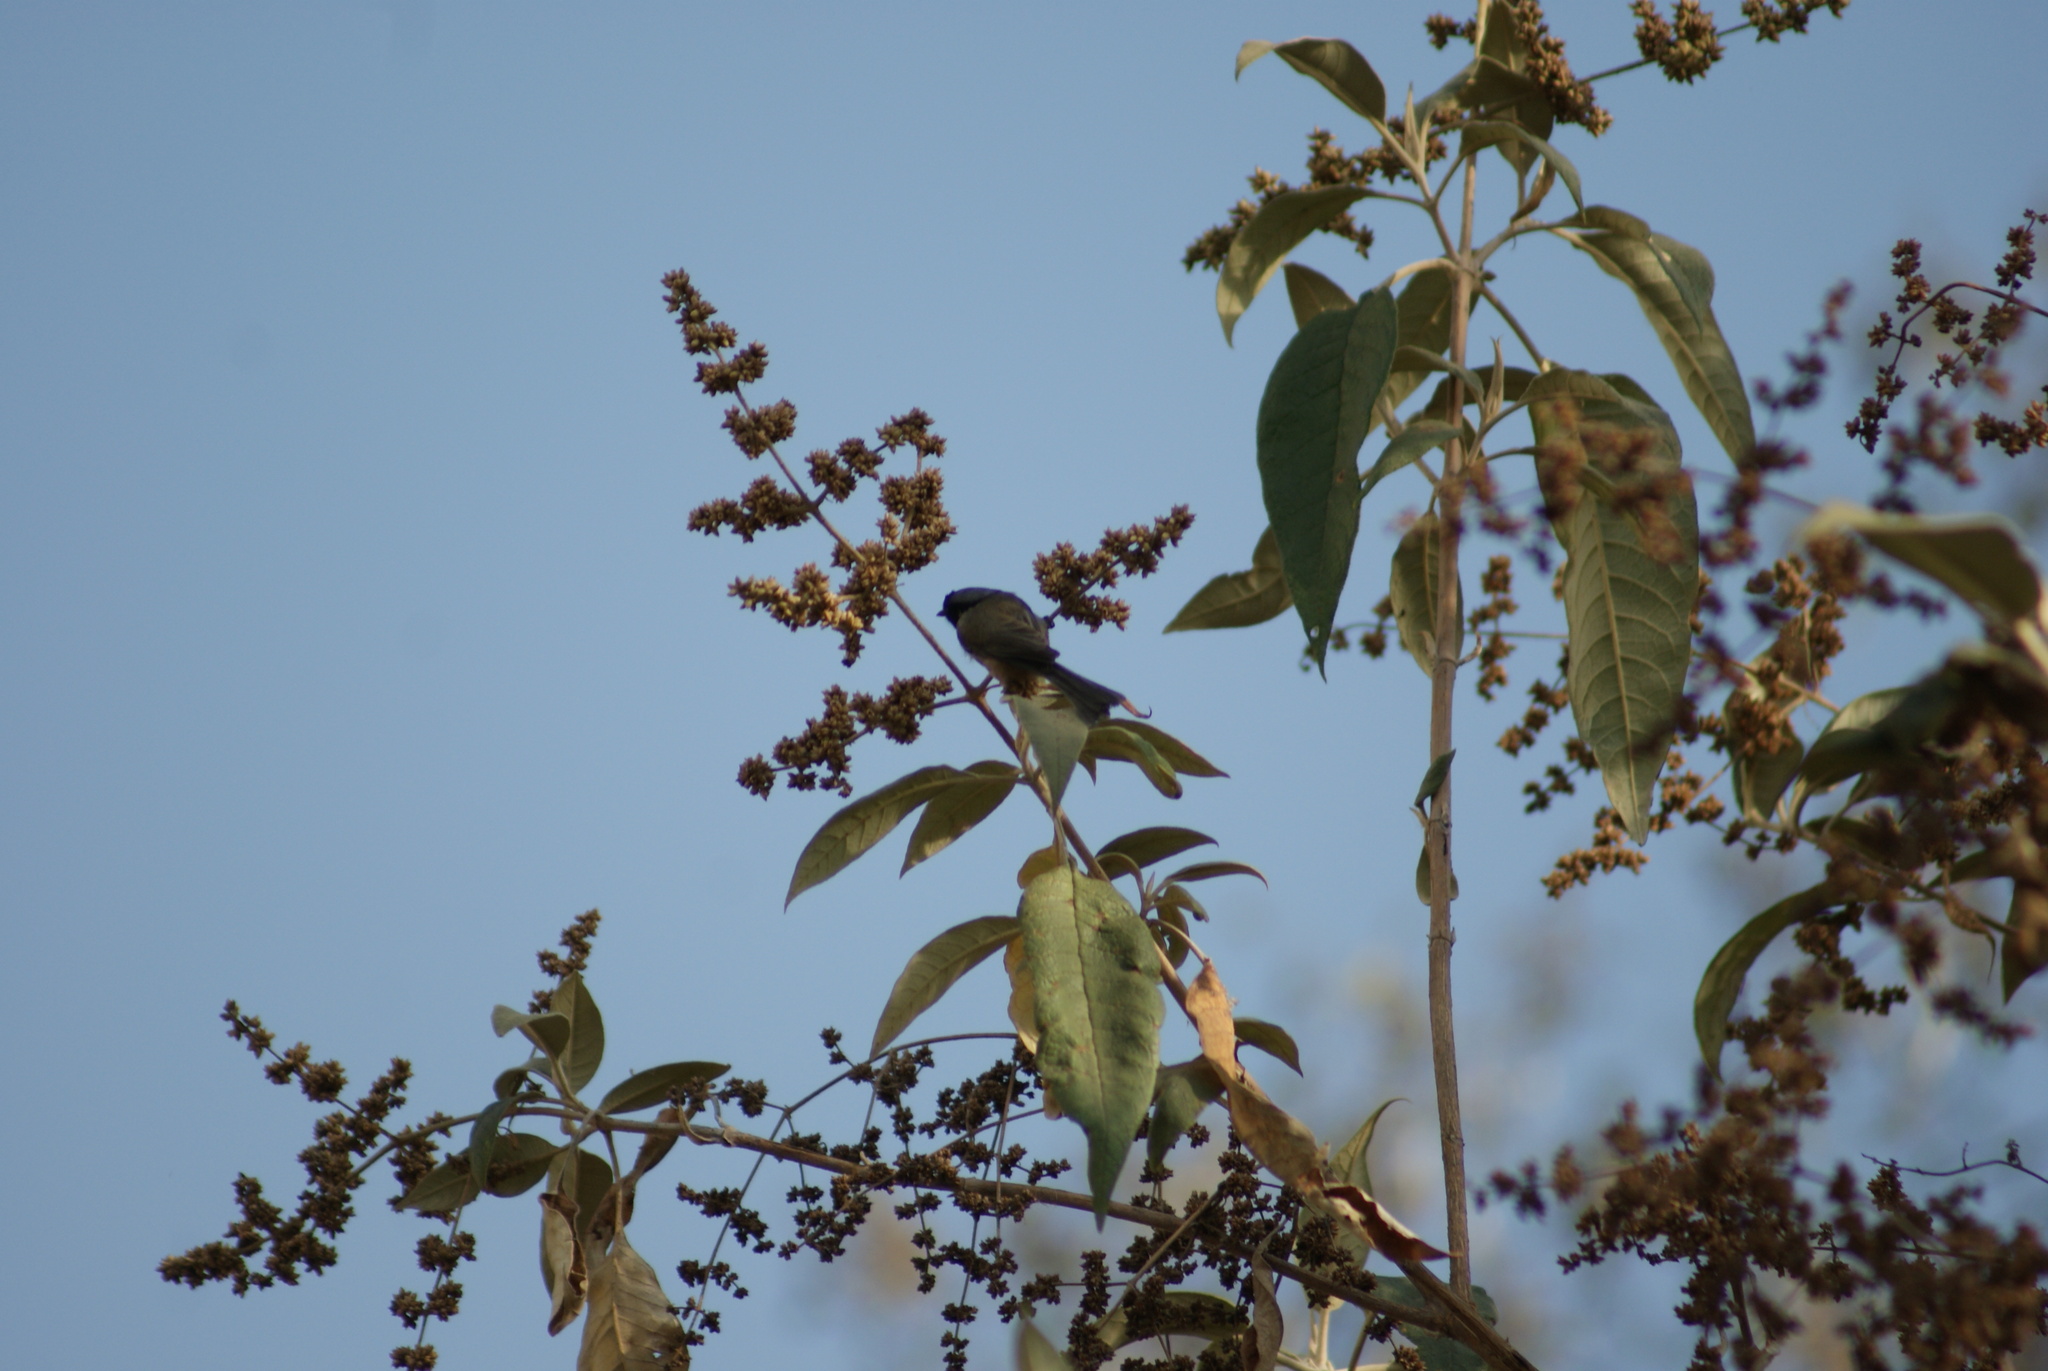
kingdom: Plantae
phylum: Tracheophyta
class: Magnoliopsida
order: Lamiales
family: Scrophulariaceae
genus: Buddleja
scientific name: Buddleja cordata
